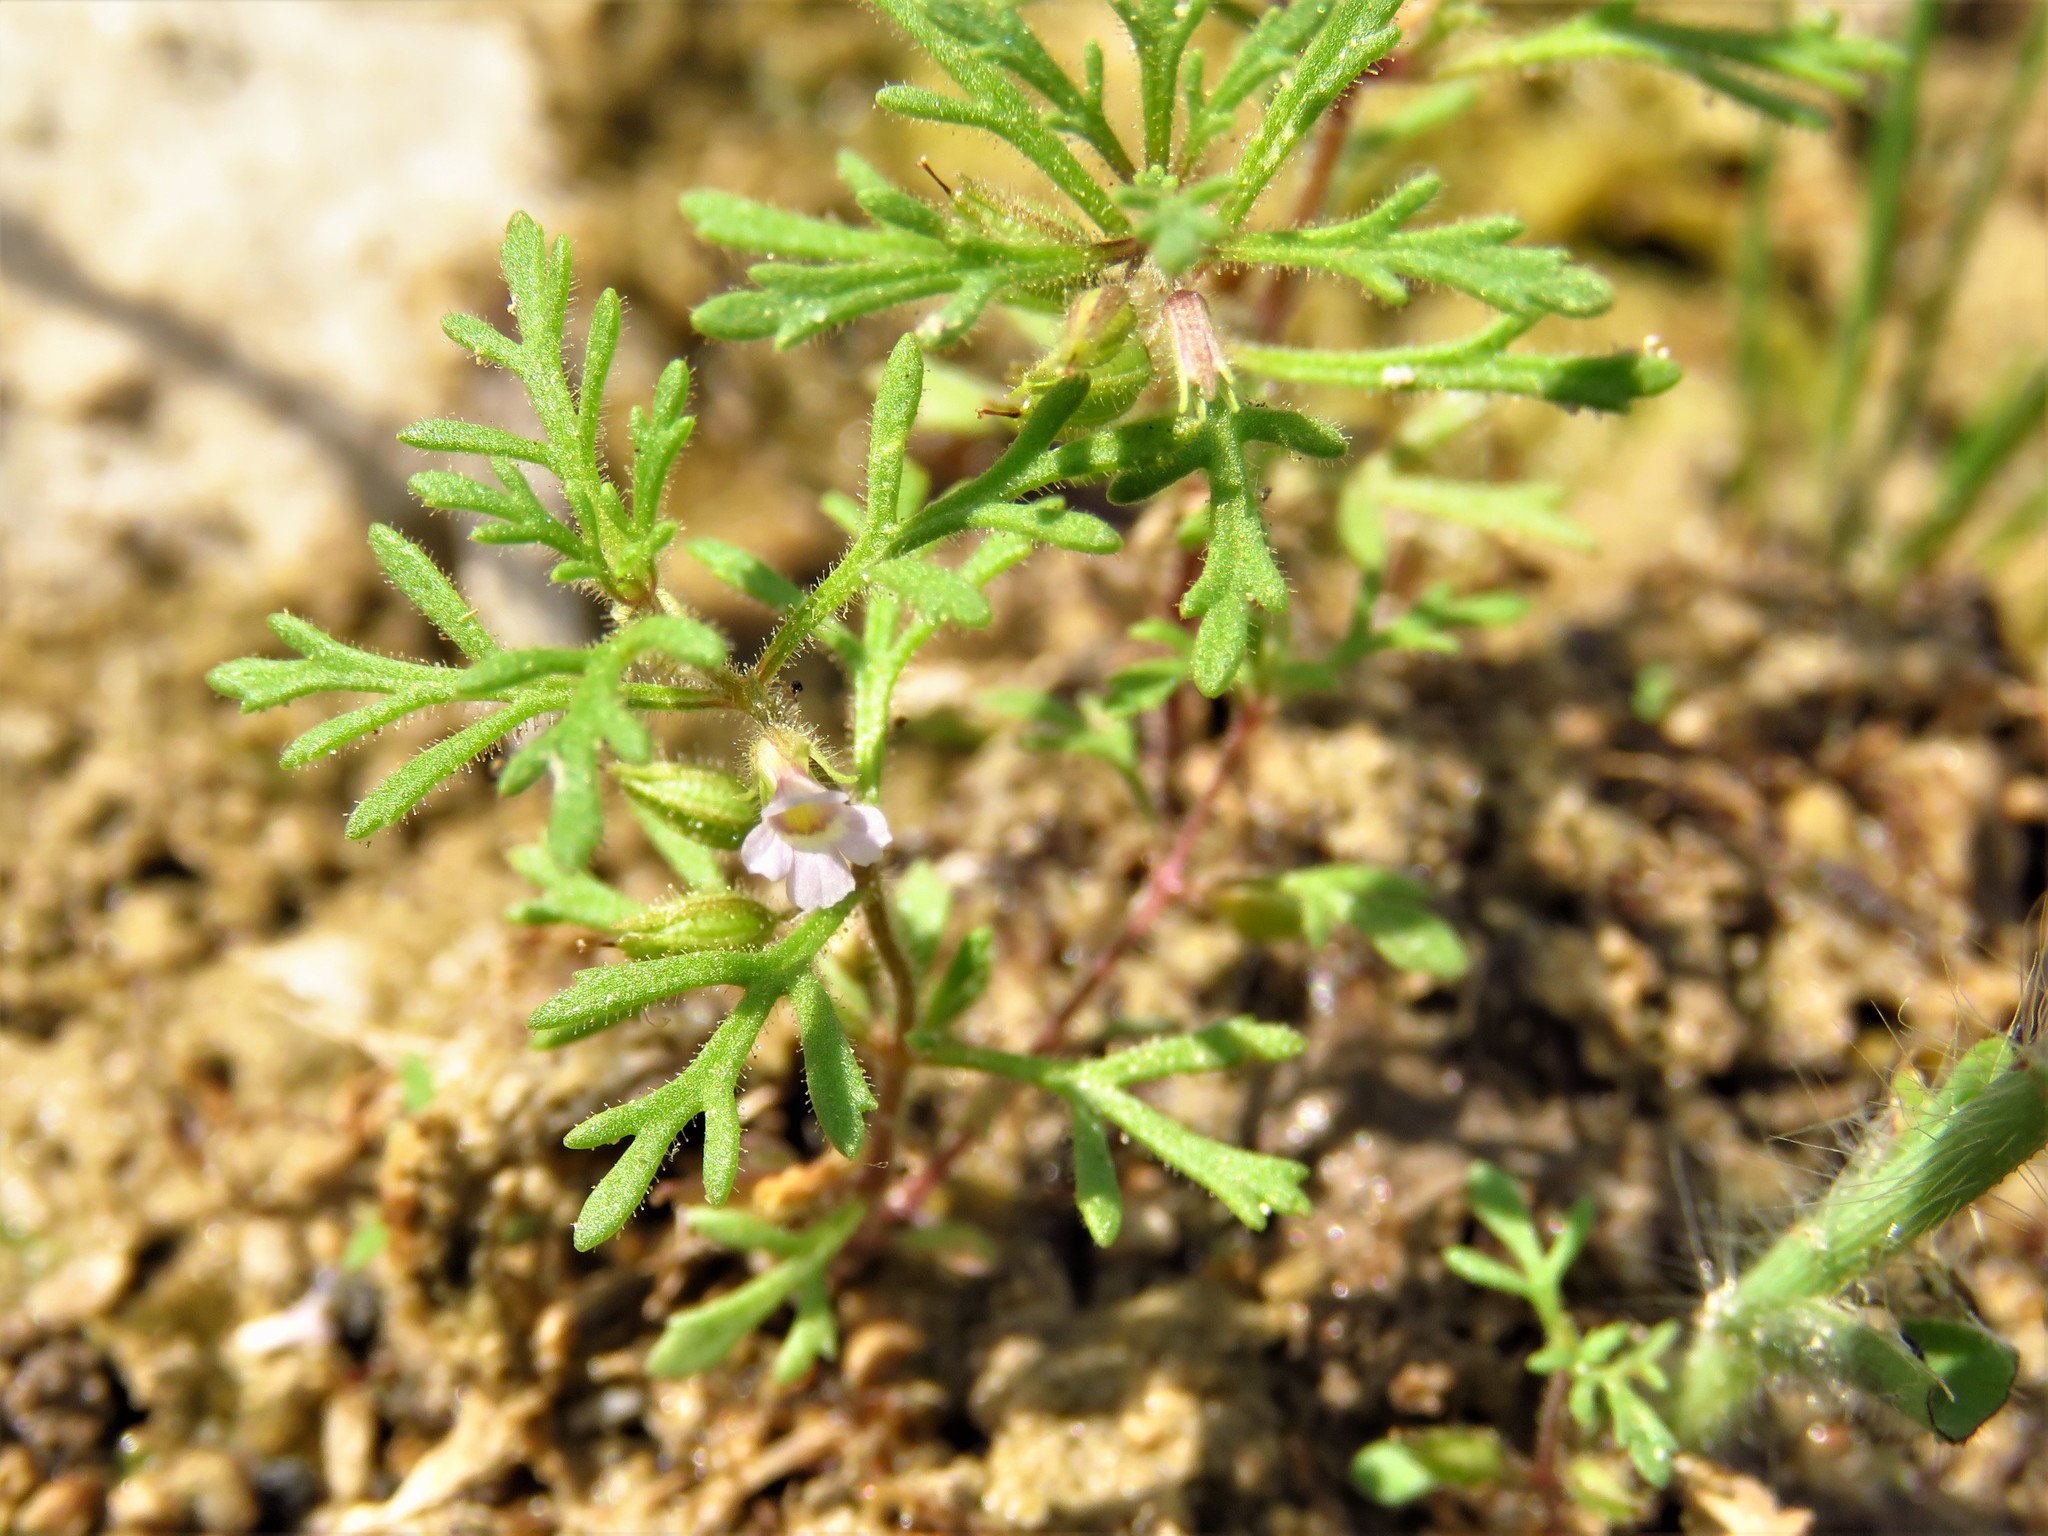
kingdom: Plantae
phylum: Tracheophyta
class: Magnoliopsida
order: Lamiales
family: Plantaginaceae
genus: Leucospora
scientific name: Leucospora multifida
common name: Narrow-leaf paleseed
